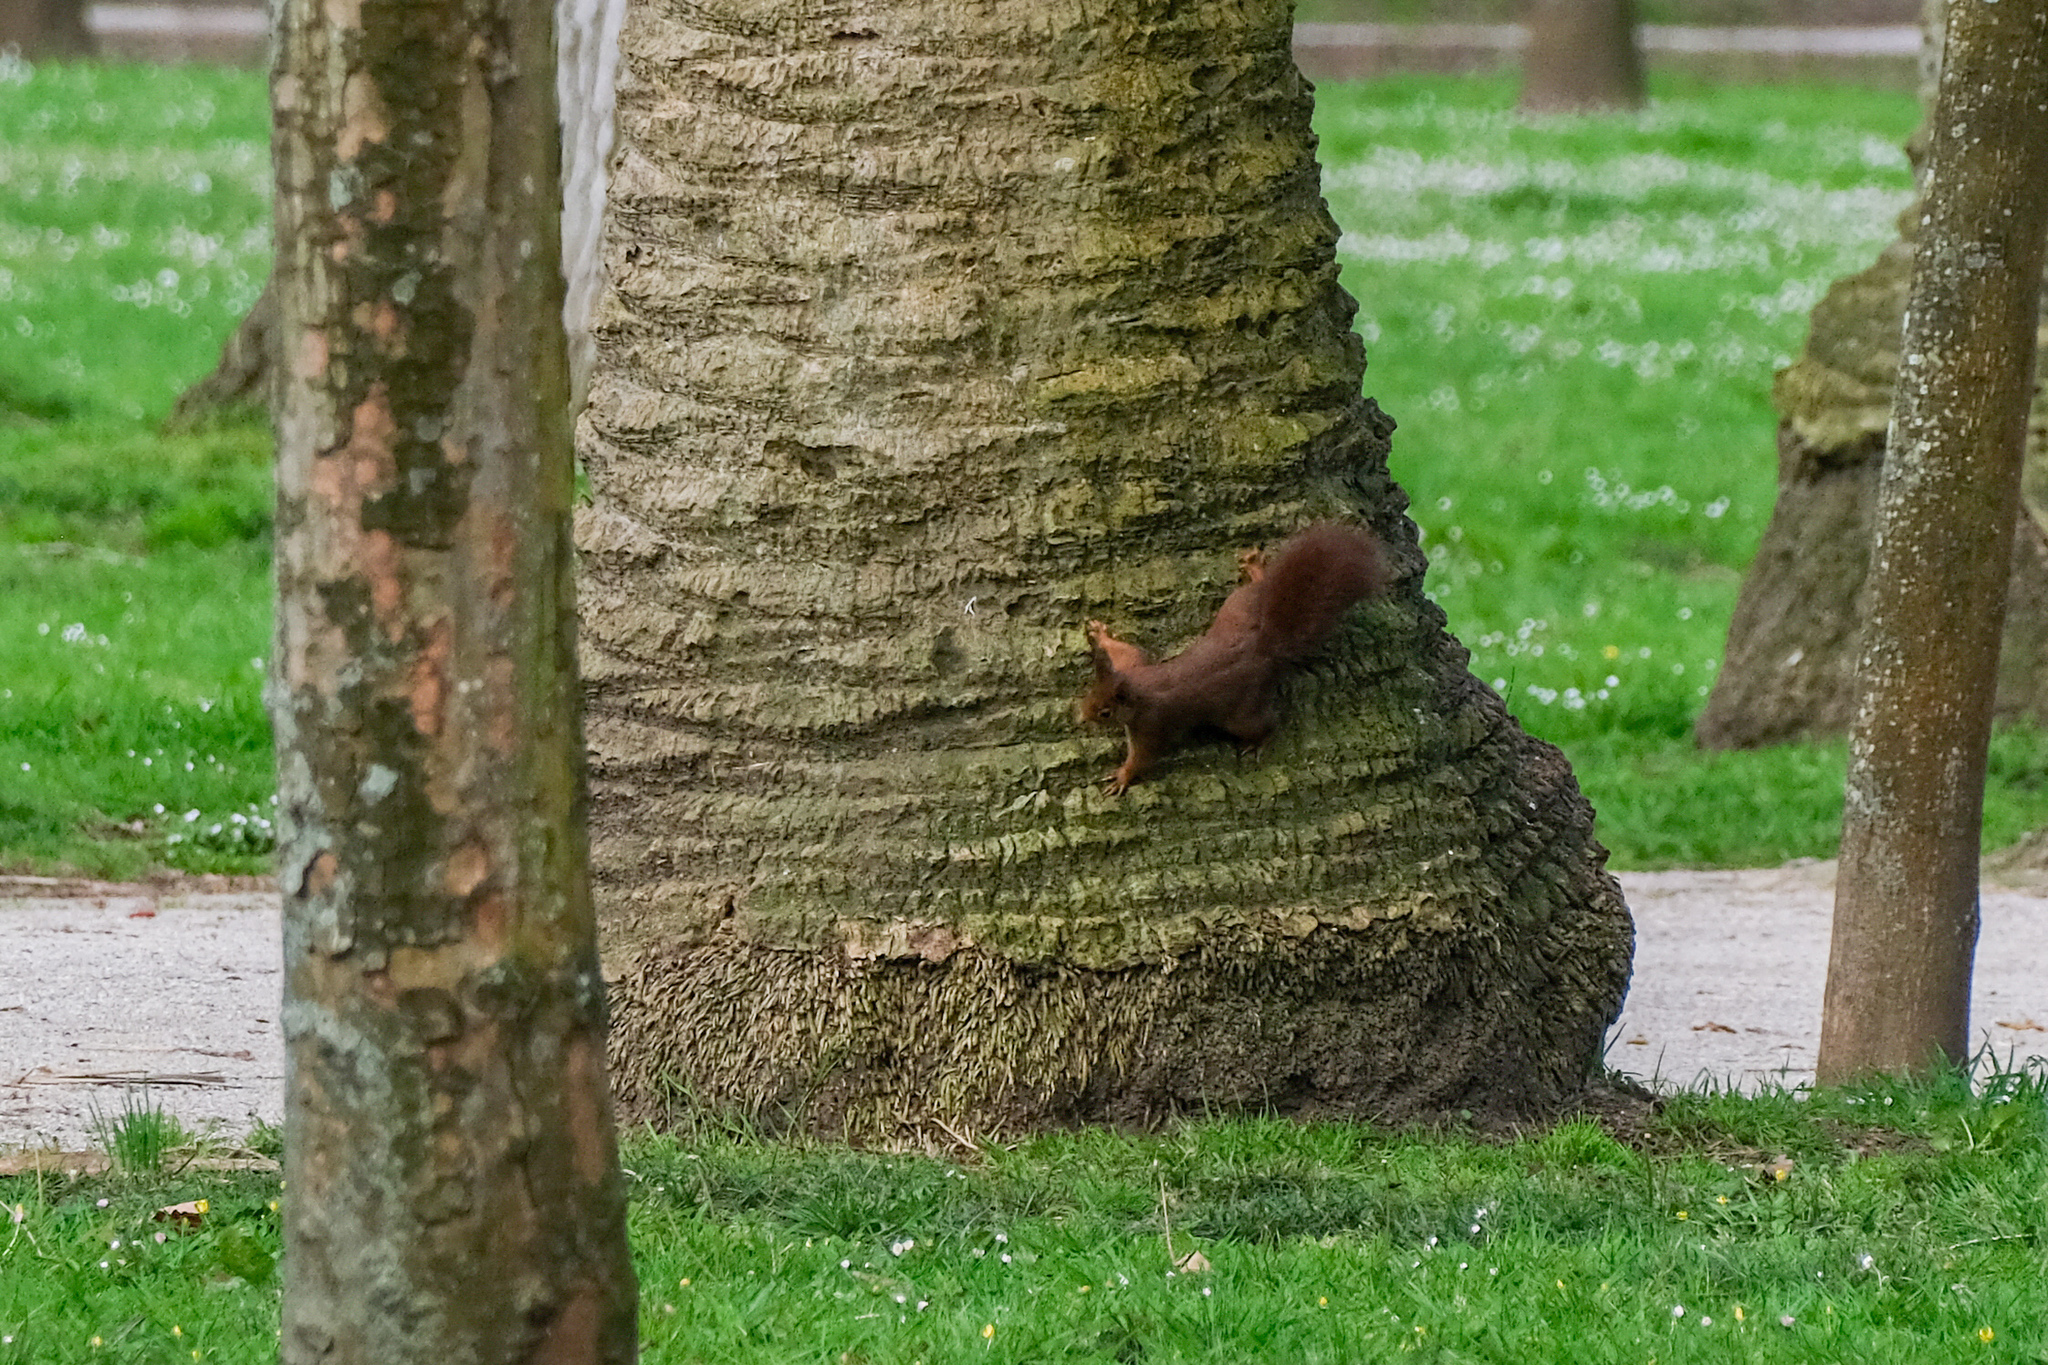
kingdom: Animalia
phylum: Chordata
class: Mammalia
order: Rodentia
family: Sciuridae
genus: Sciurus
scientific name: Sciurus vulgaris
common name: Eurasian red squirrel
